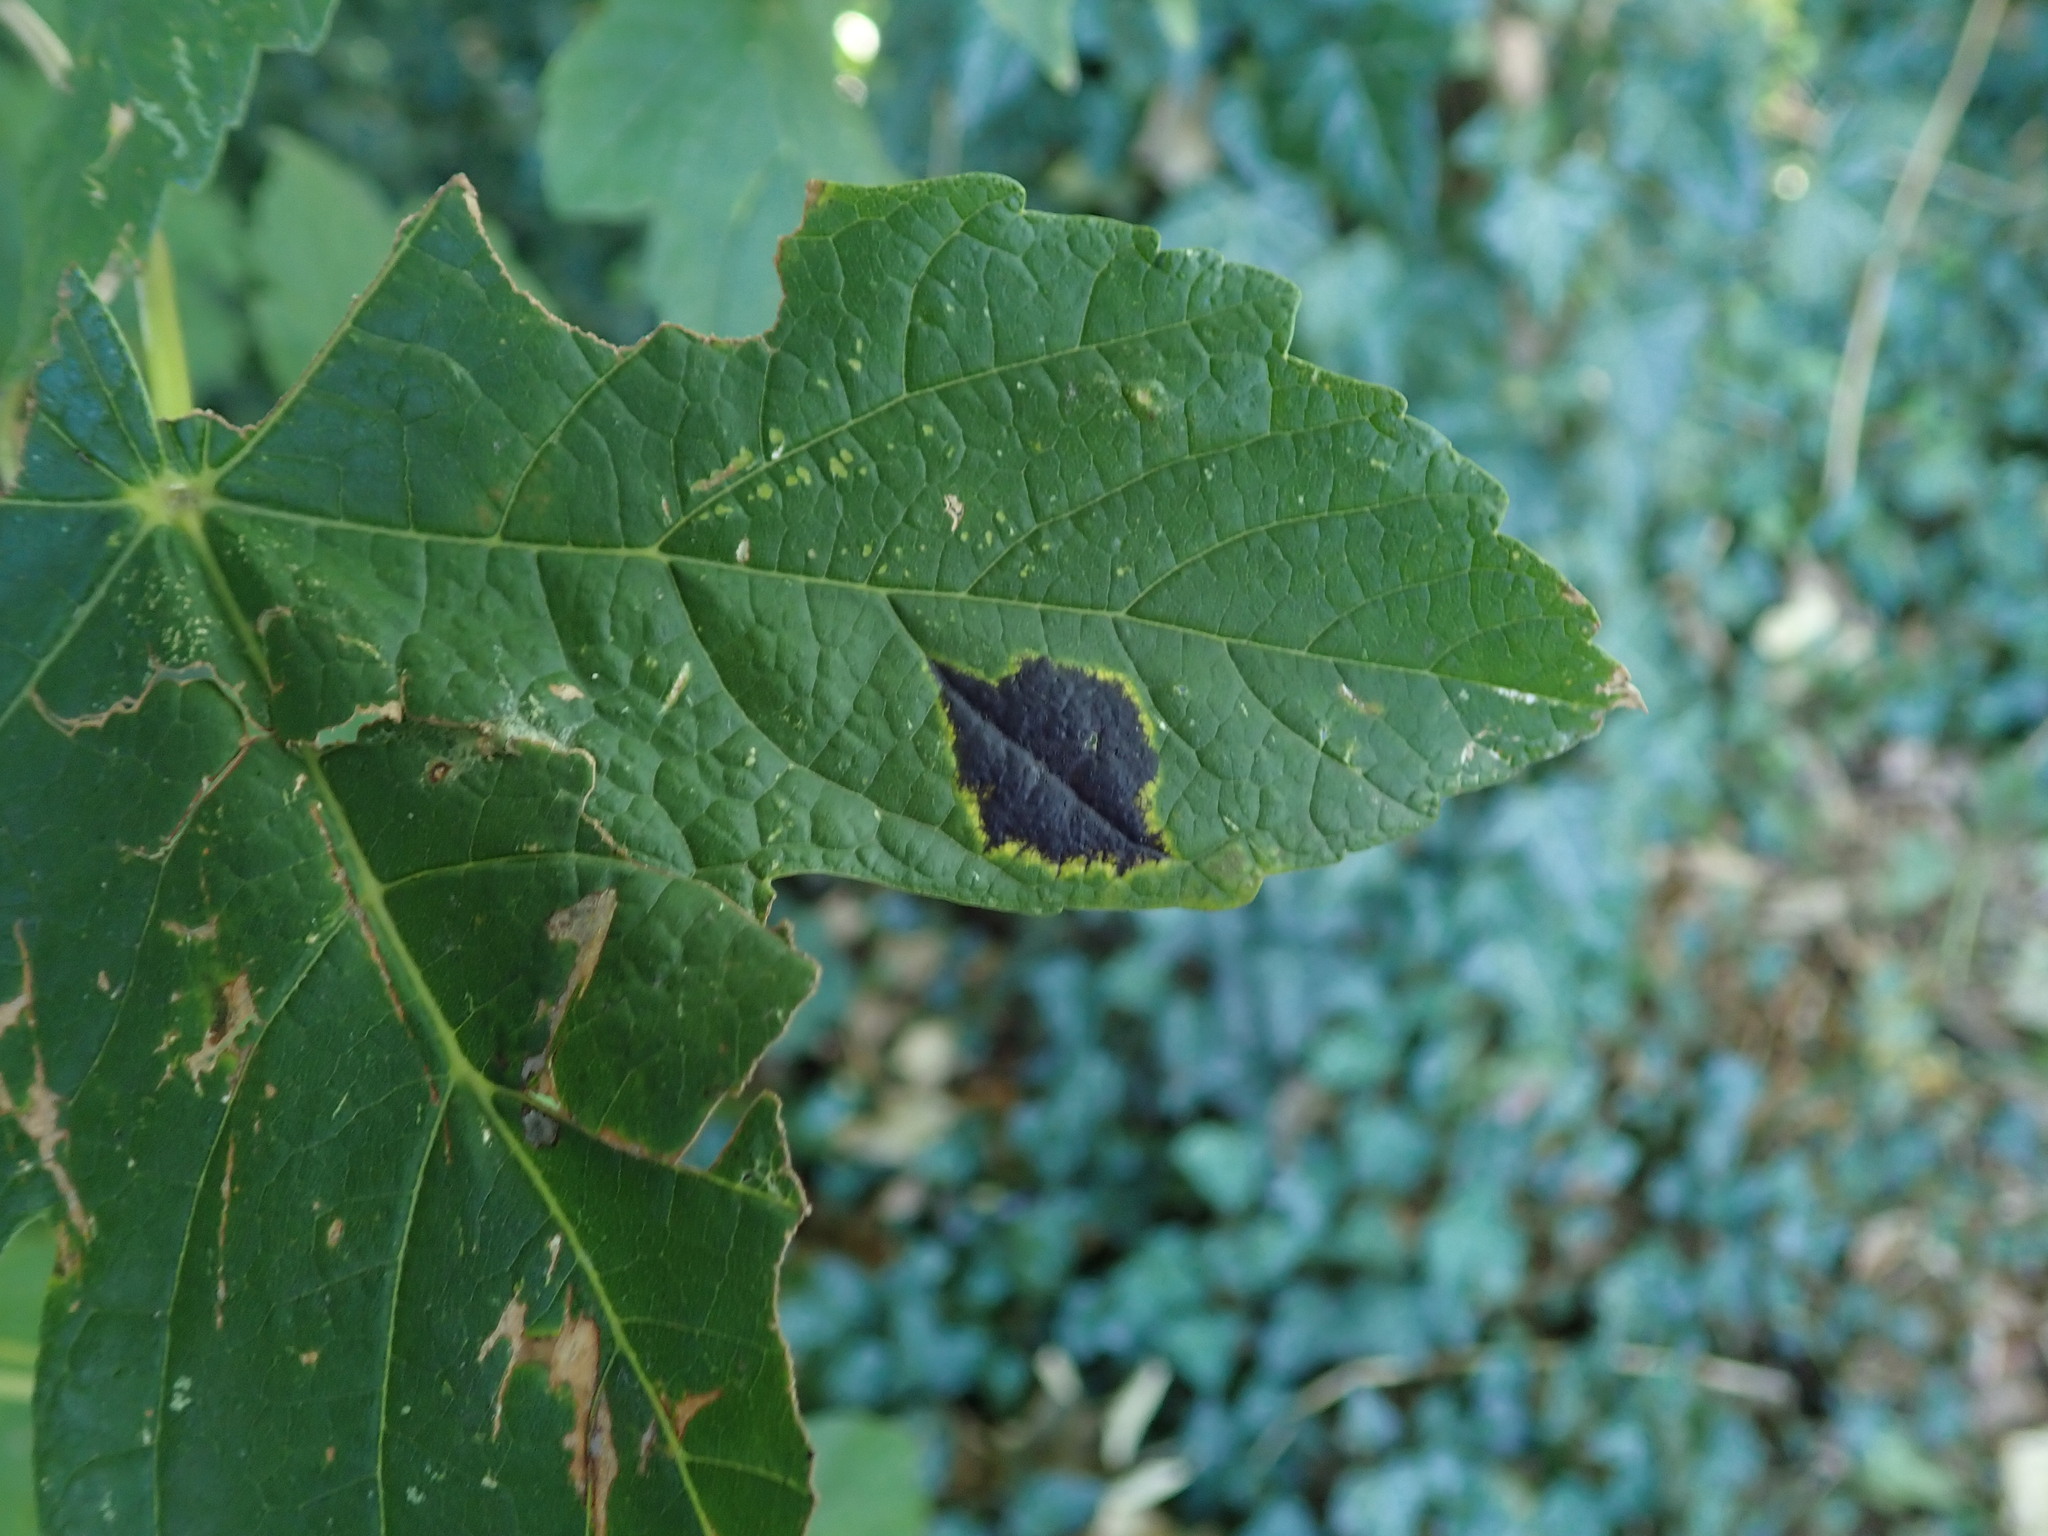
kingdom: Fungi
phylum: Ascomycota
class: Leotiomycetes
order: Rhytismatales
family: Rhytismataceae
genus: Rhytisma
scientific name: Rhytisma acerinum
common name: European tar spot
